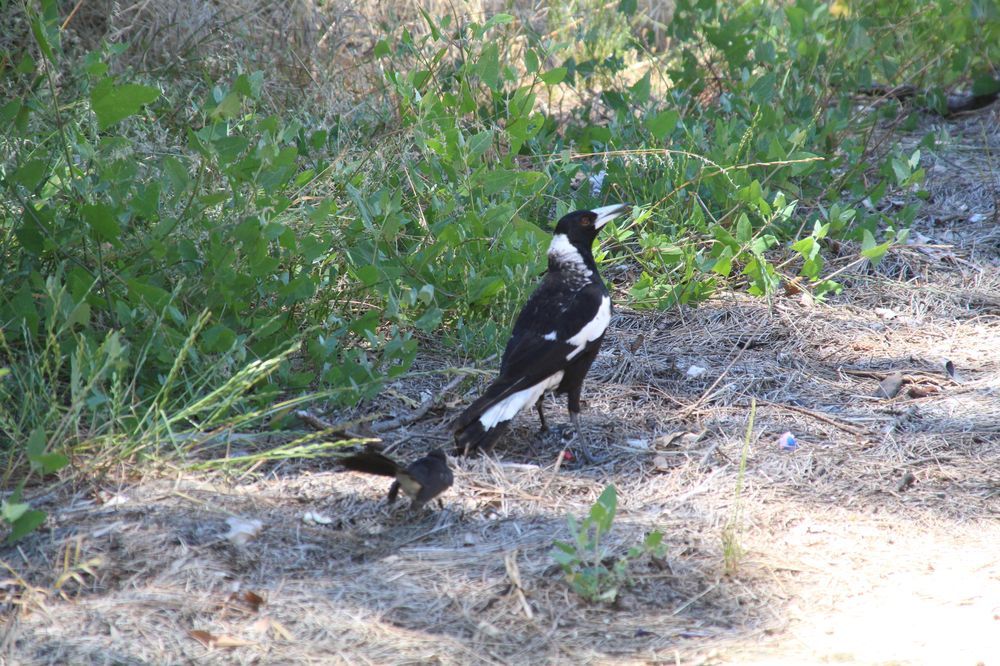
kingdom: Animalia
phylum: Chordata
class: Aves
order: Passeriformes
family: Cracticidae
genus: Gymnorhina
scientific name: Gymnorhina tibicen
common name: Australian magpie
